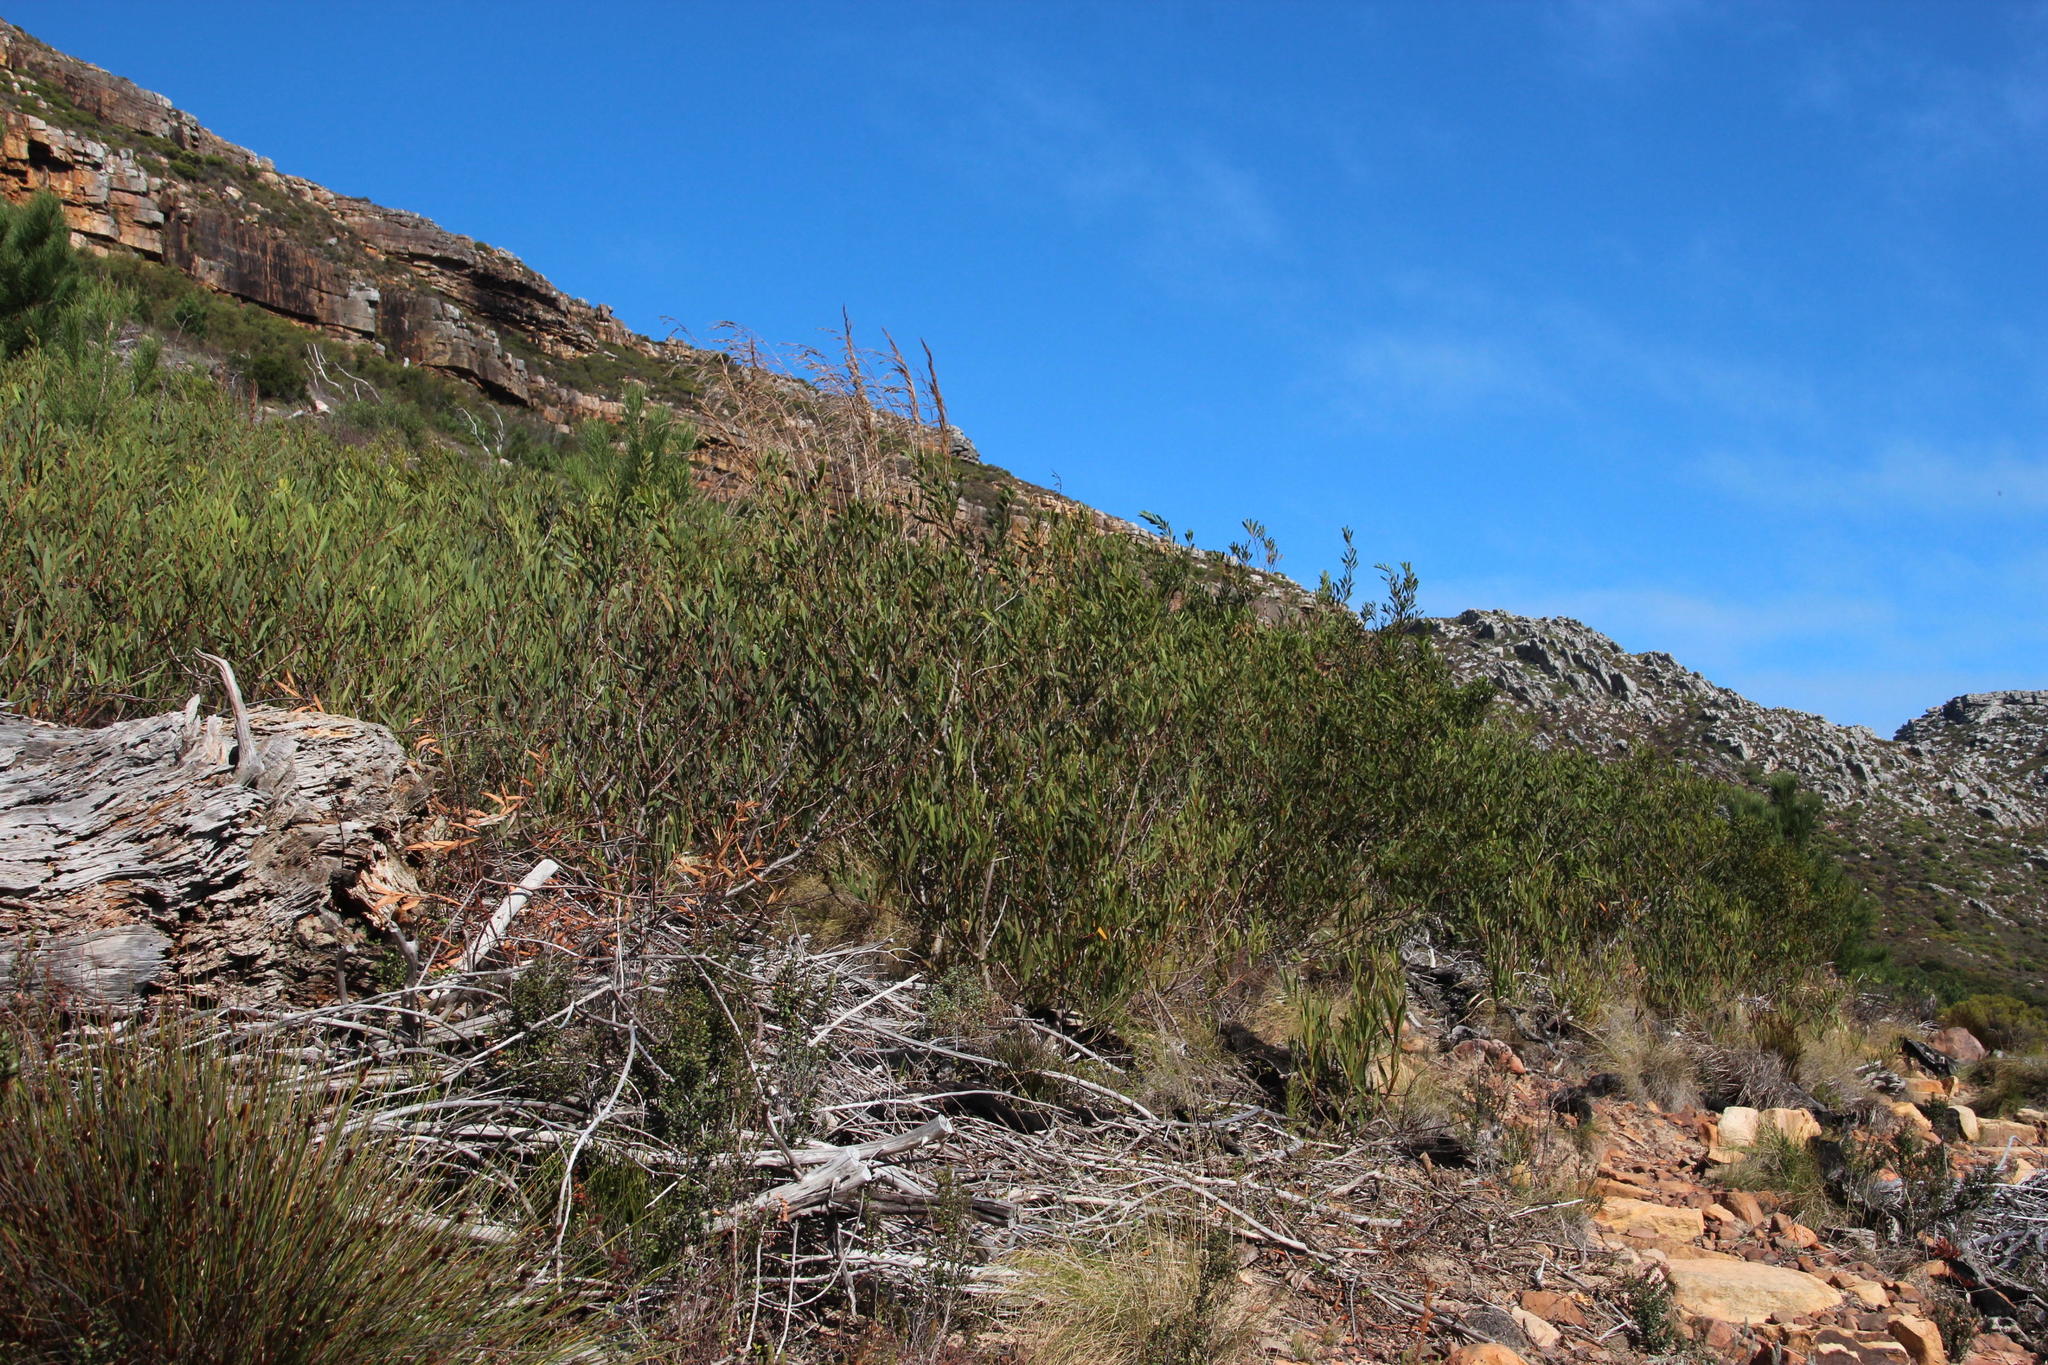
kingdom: Plantae
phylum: Tracheophyta
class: Magnoliopsida
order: Fabales
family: Fabaceae
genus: Acacia
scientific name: Acacia longifolia
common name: Sydney golden wattle
